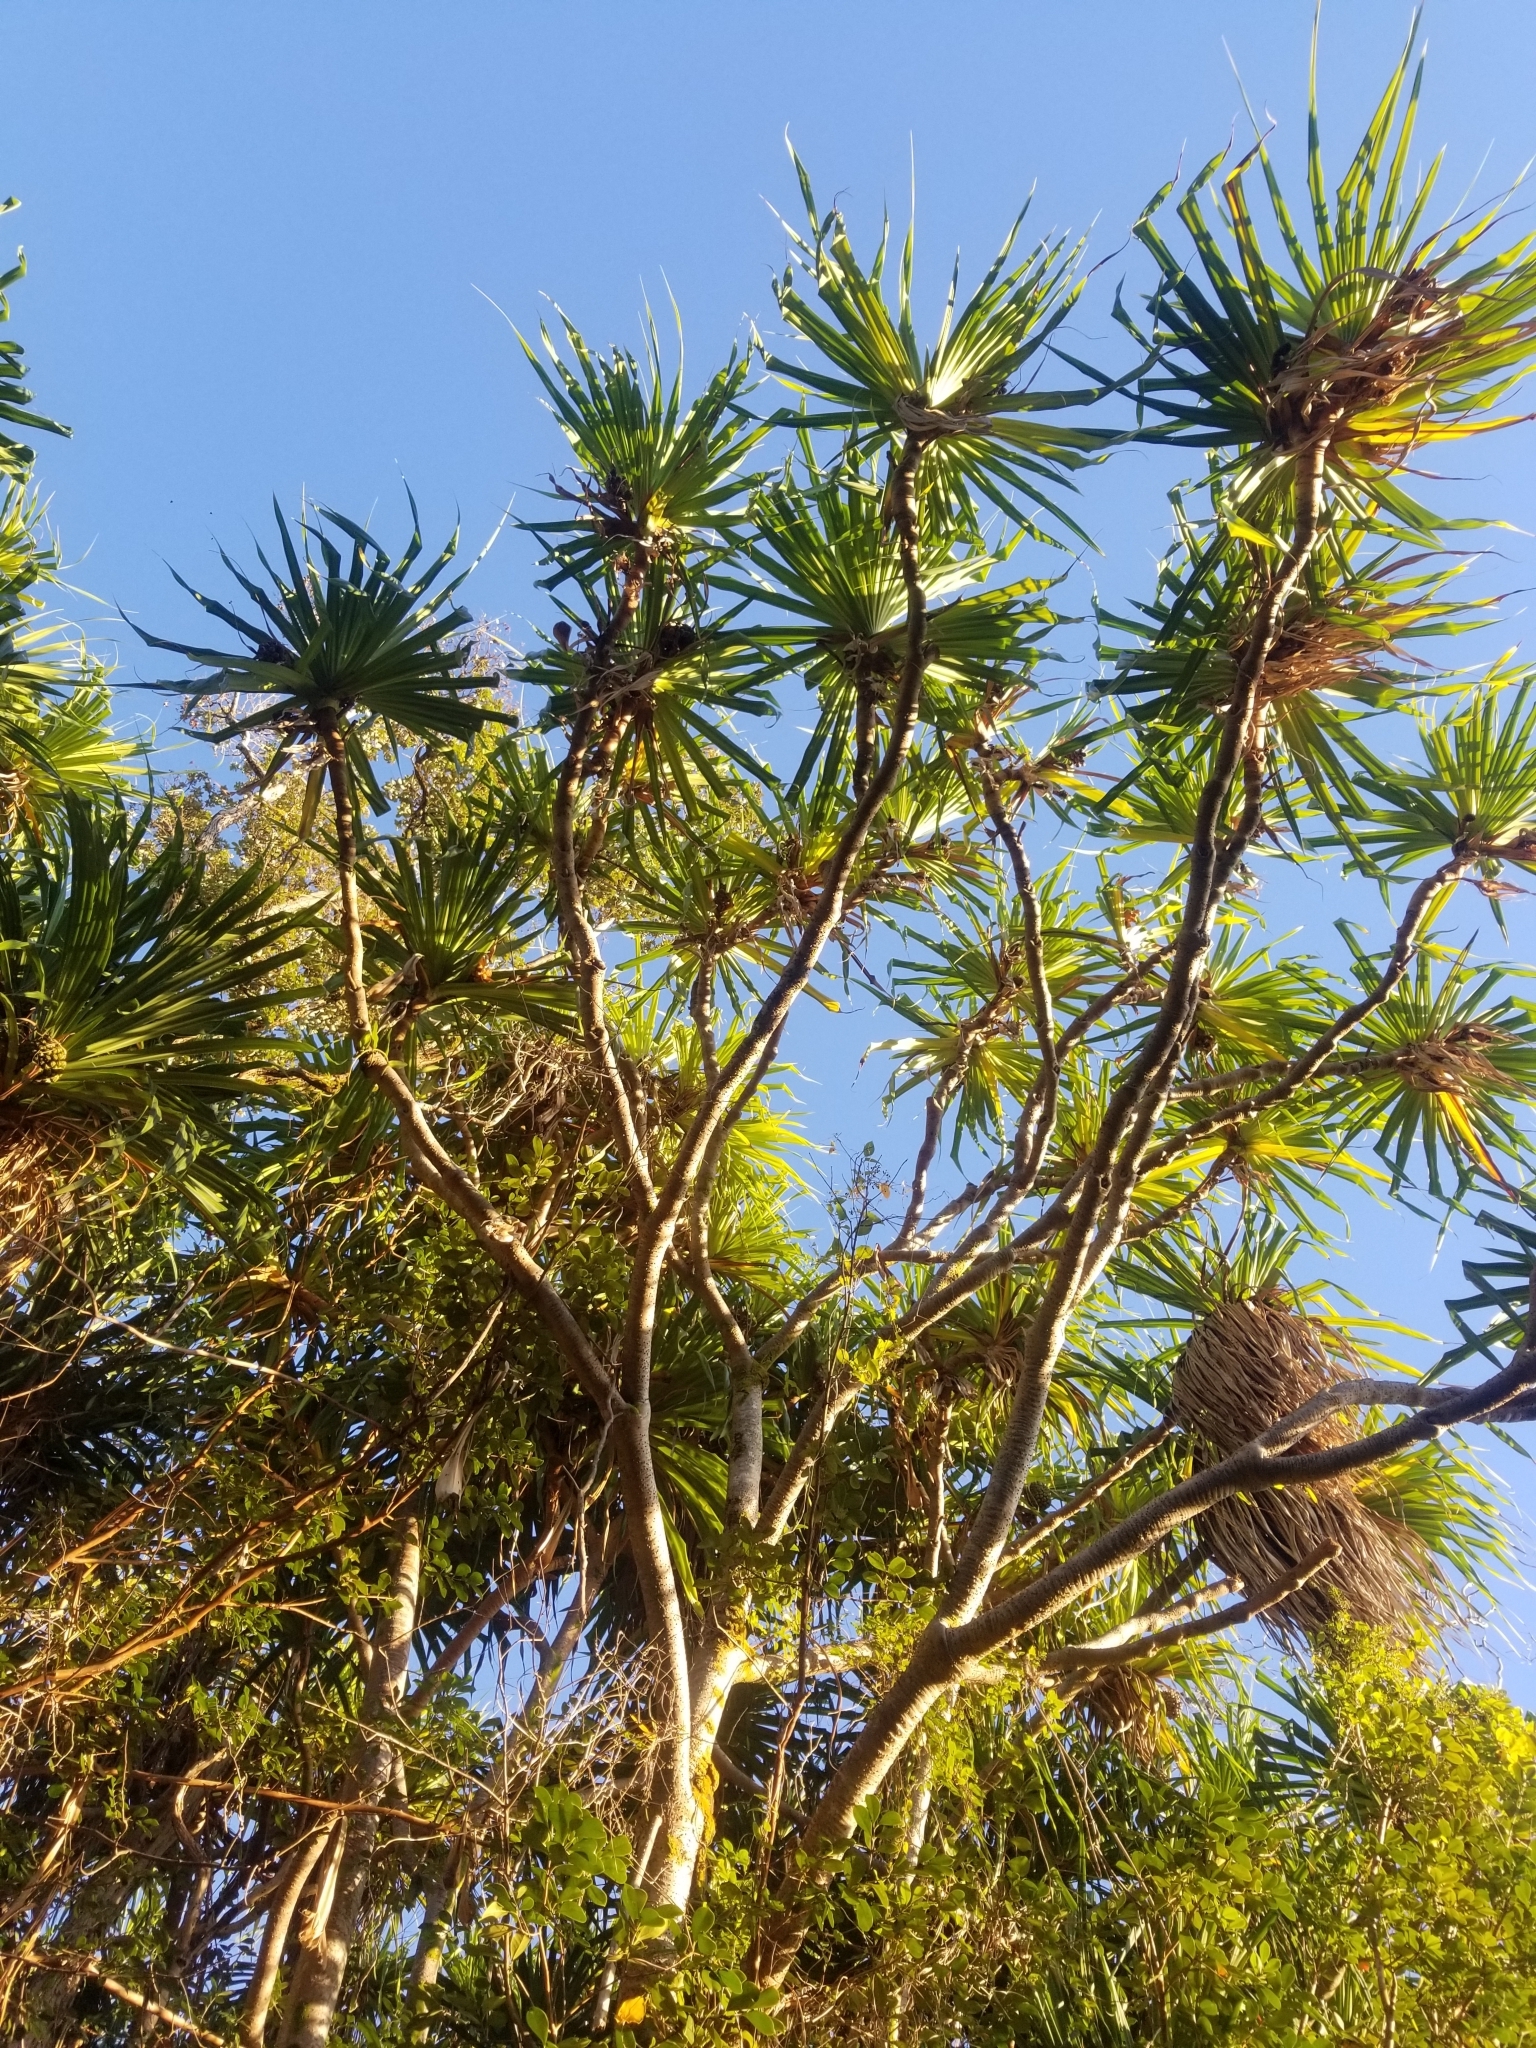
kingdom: Plantae
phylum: Tracheophyta
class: Liliopsida
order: Pandanales
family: Pandanaceae
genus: Pandanus
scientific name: Pandanus tectorius
